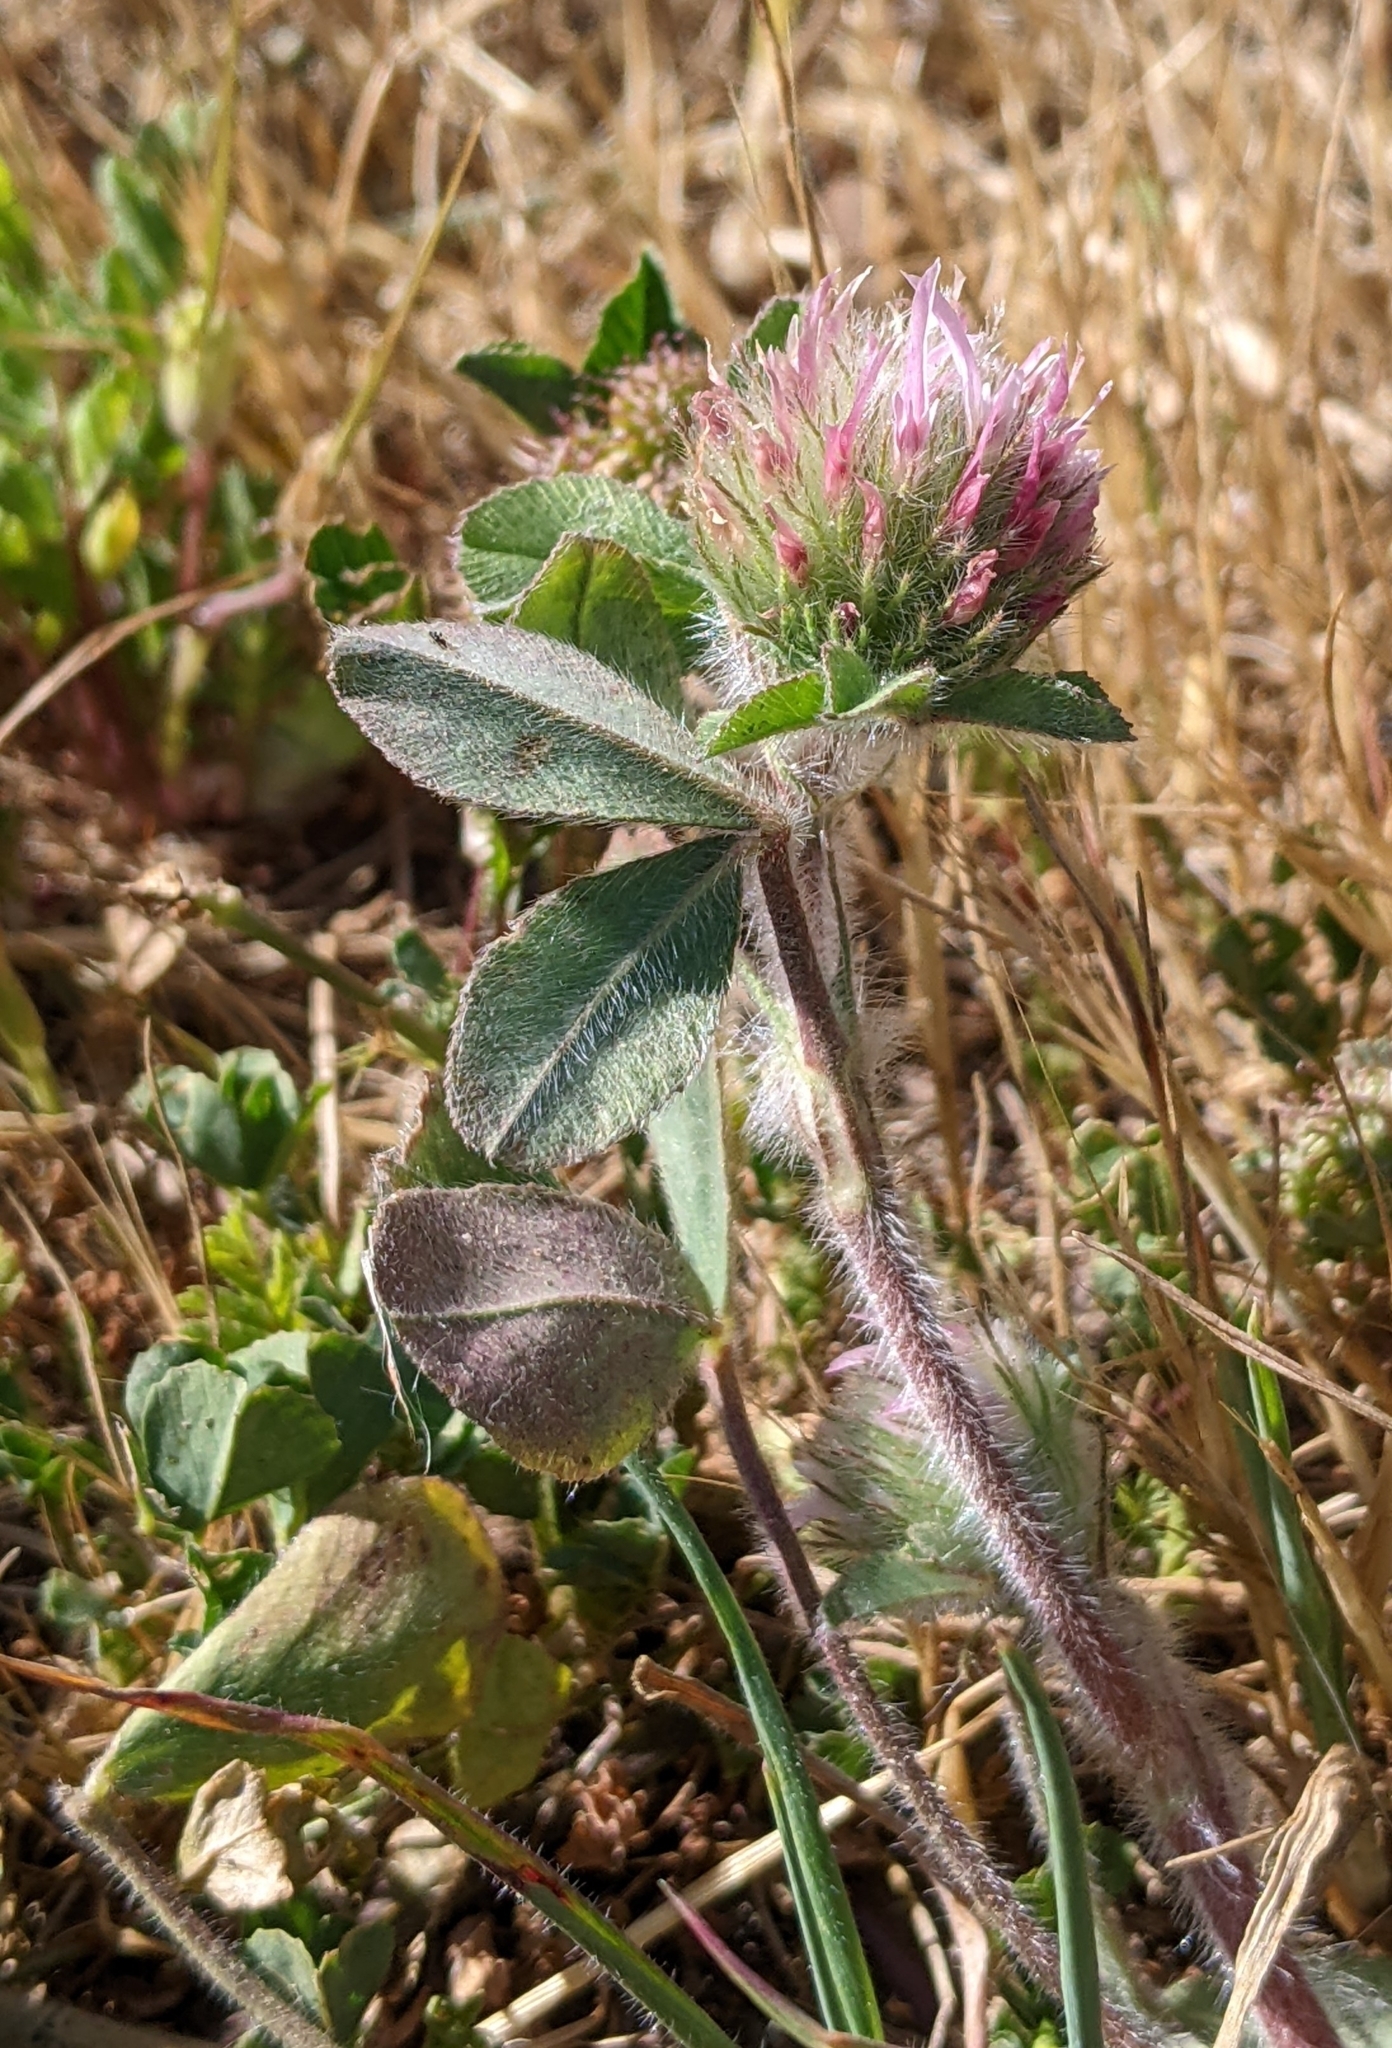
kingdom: Plantae
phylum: Tracheophyta
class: Magnoliopsida
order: Fabales
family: Fabaceae
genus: Trifolium
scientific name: Trifolium hirtum
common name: Rose clover
